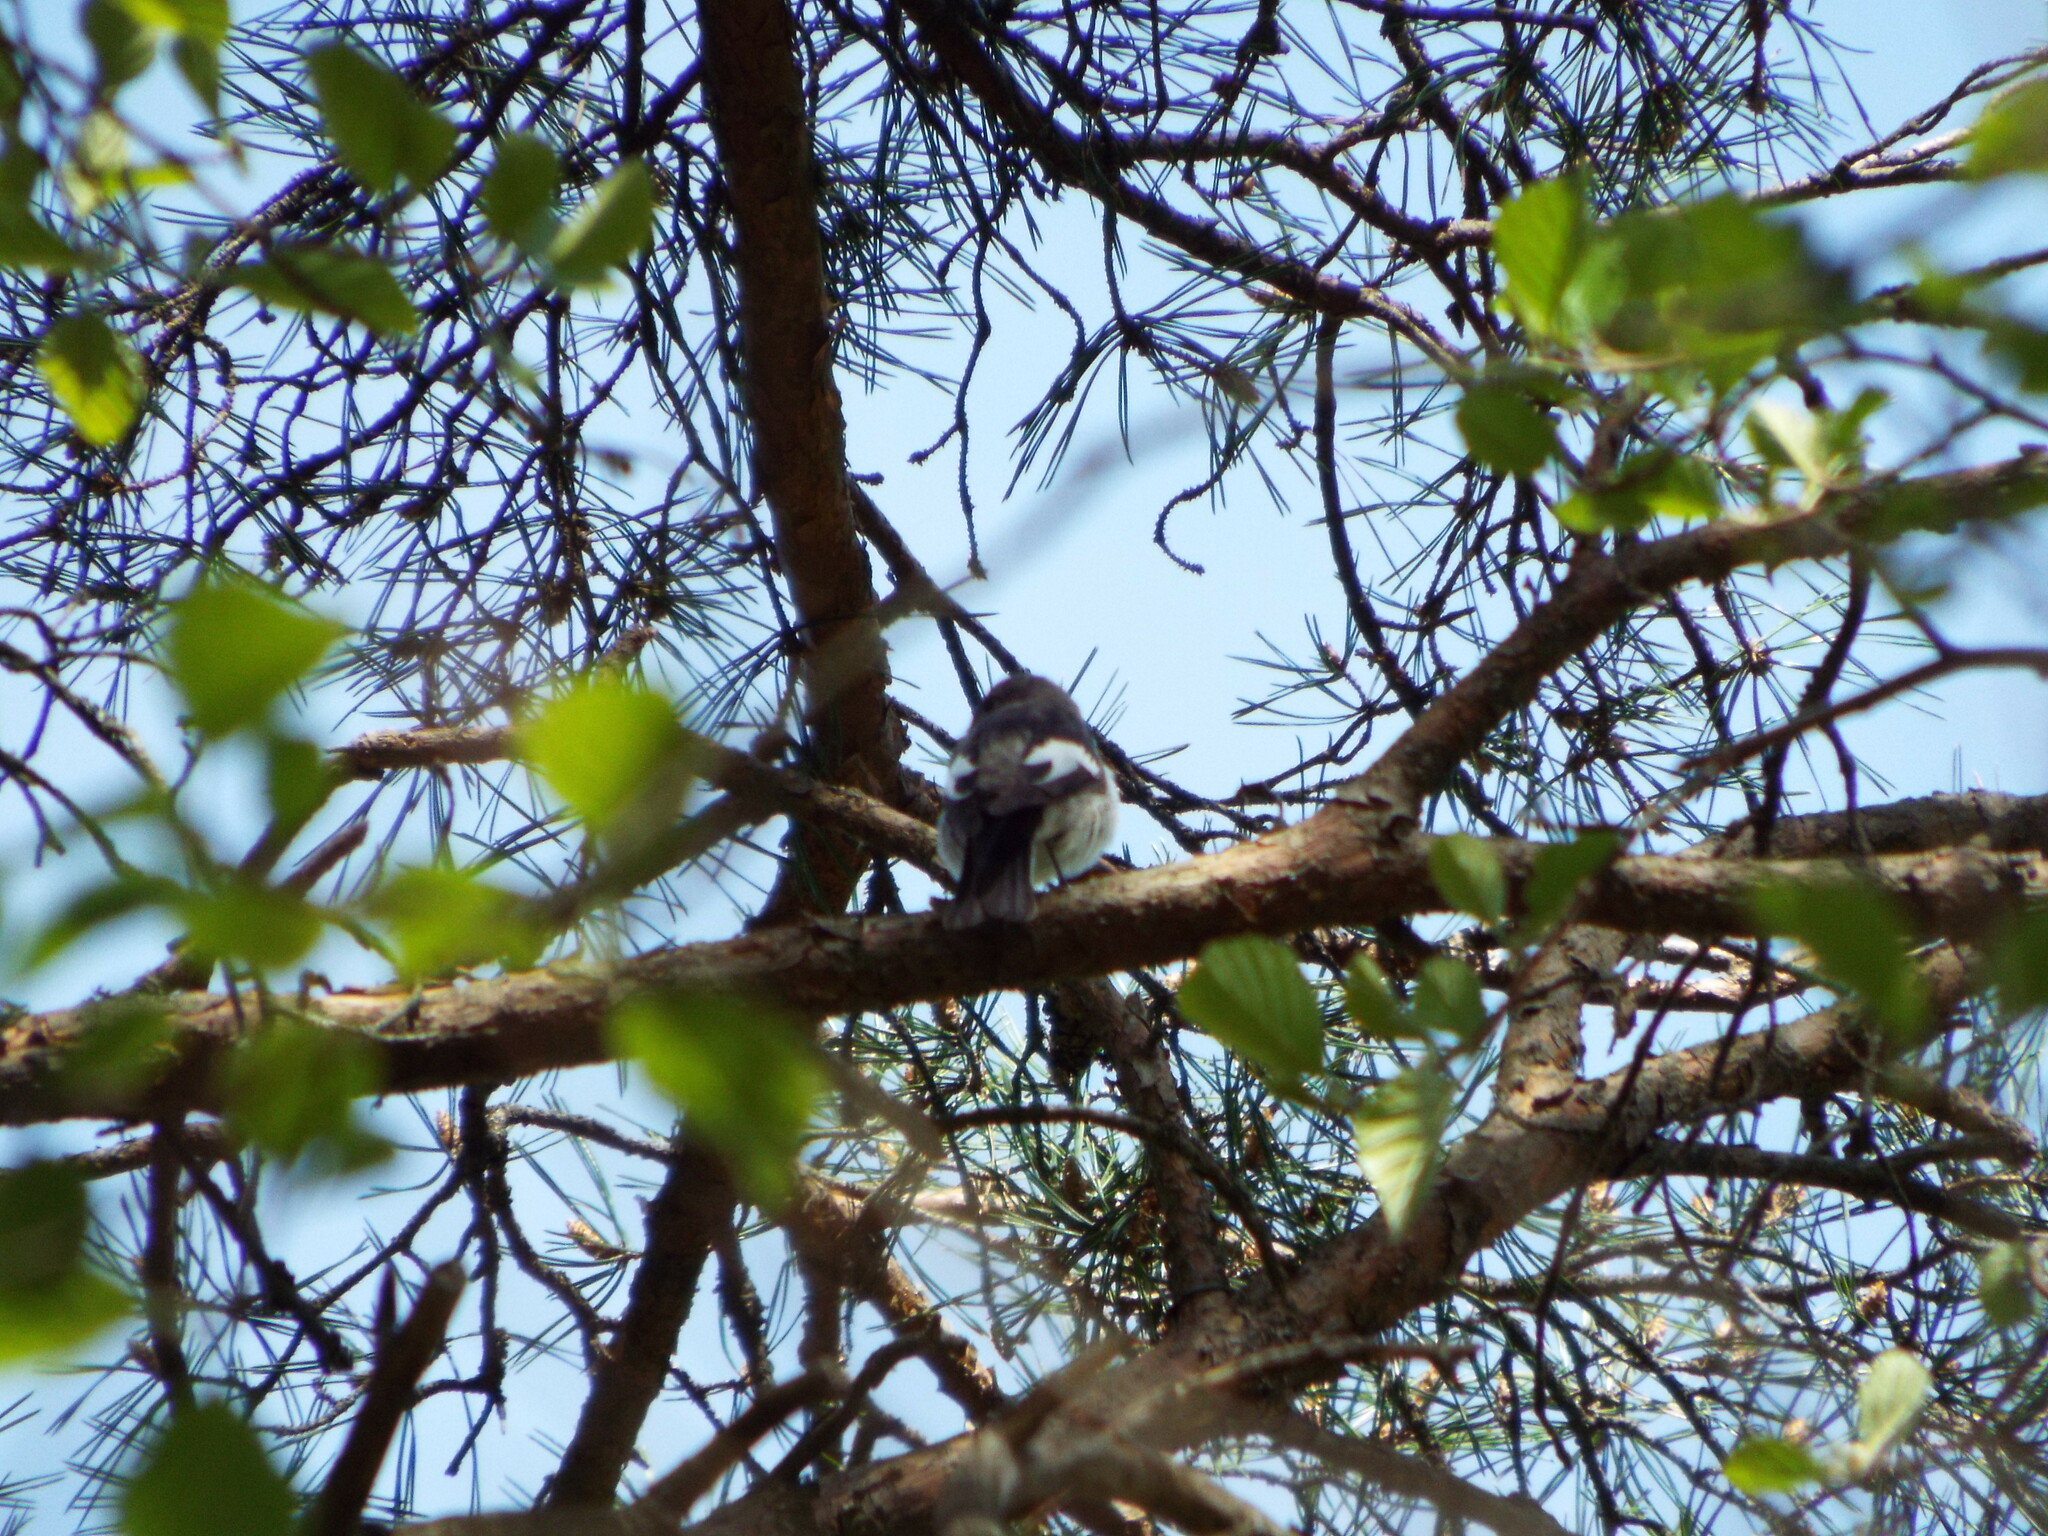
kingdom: Animalia
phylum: Chordata
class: Aves
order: Passeriformes
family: Muscicapidae
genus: Ficedula
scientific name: Ficedula hypoleuca
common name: European pied flycatcher
